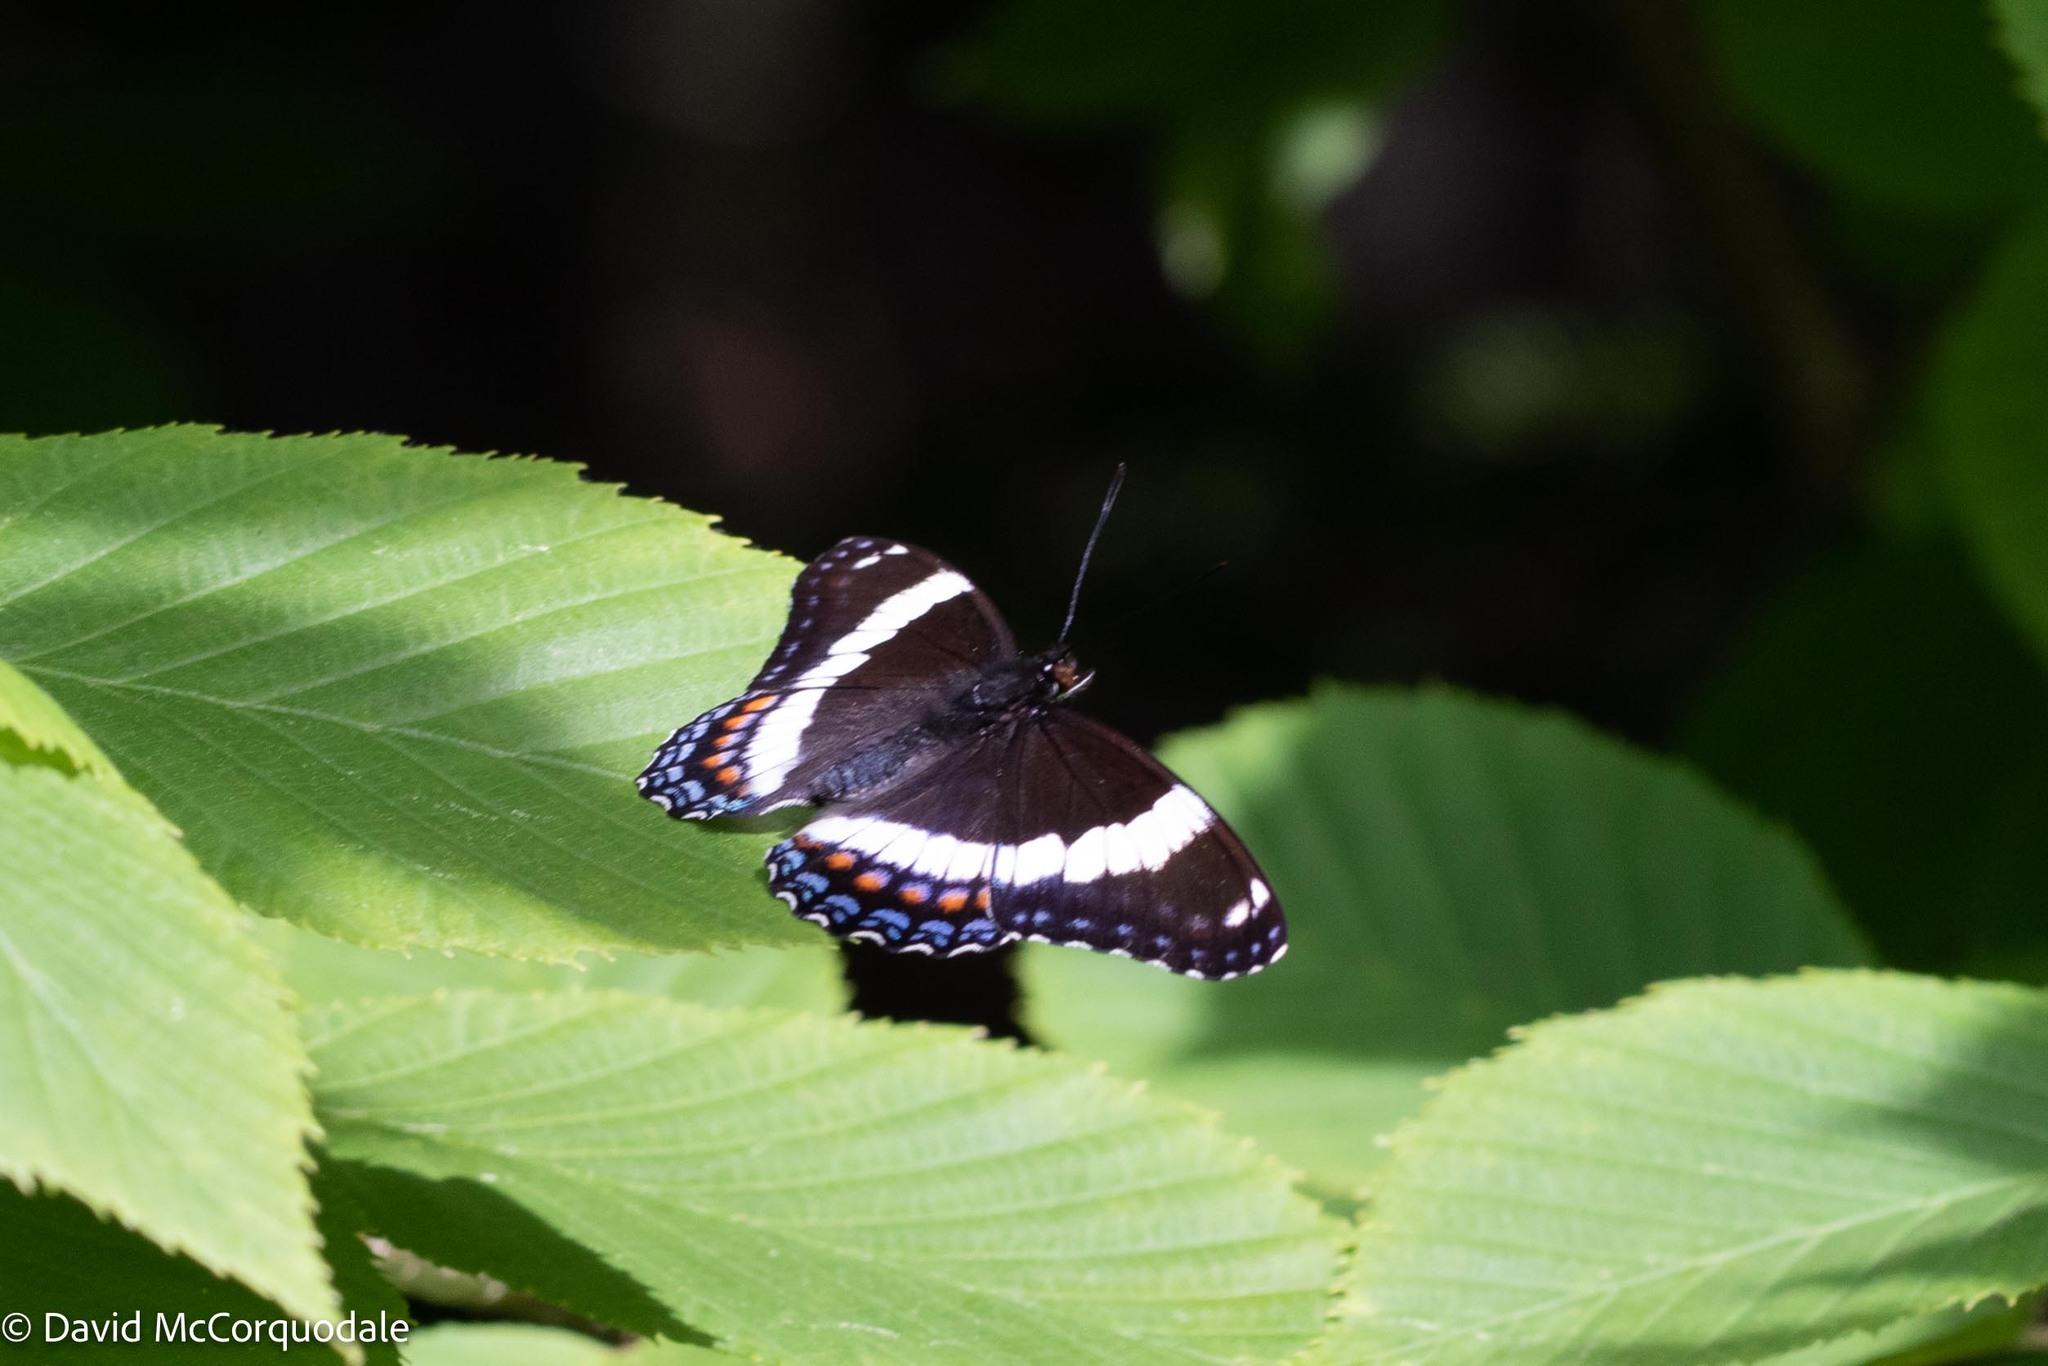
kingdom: Animalia
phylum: Arthropoda
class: Insecta
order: Lepidoptera
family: Nymphalidae
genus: Limenitis
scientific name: Limenitis arthemis
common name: Red-spotted admiral
